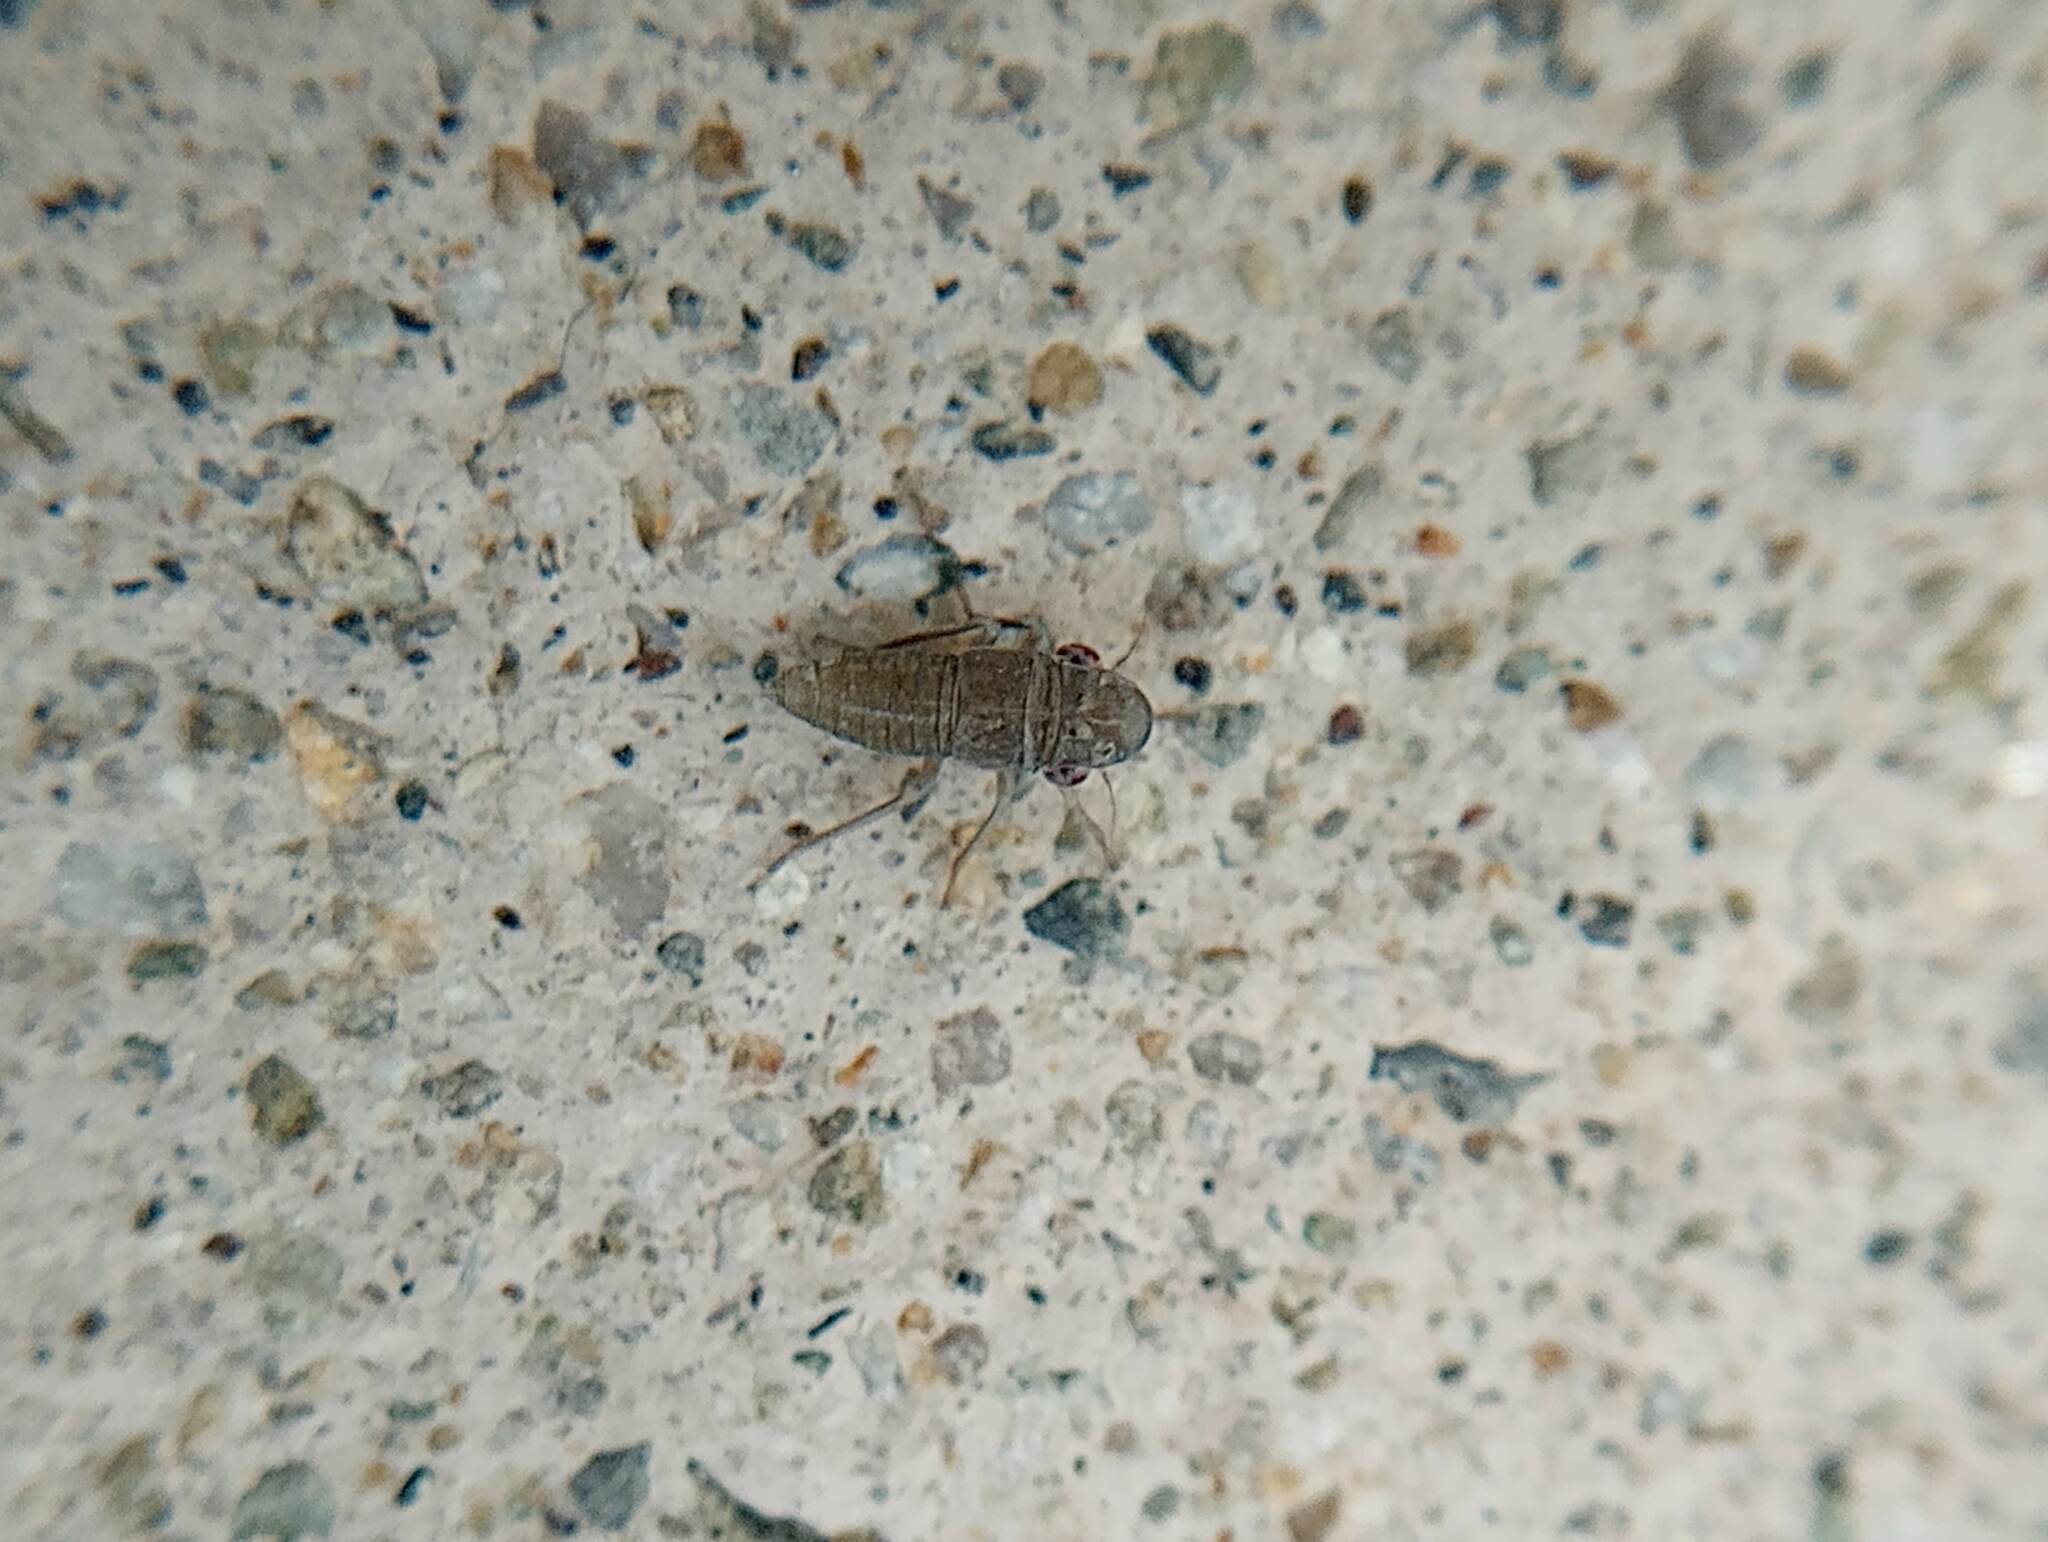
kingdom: Animalia
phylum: Arthropoda
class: Insecta
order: Hemiptera
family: Cicadellidae
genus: Homalodisca
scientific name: Homalodisca
